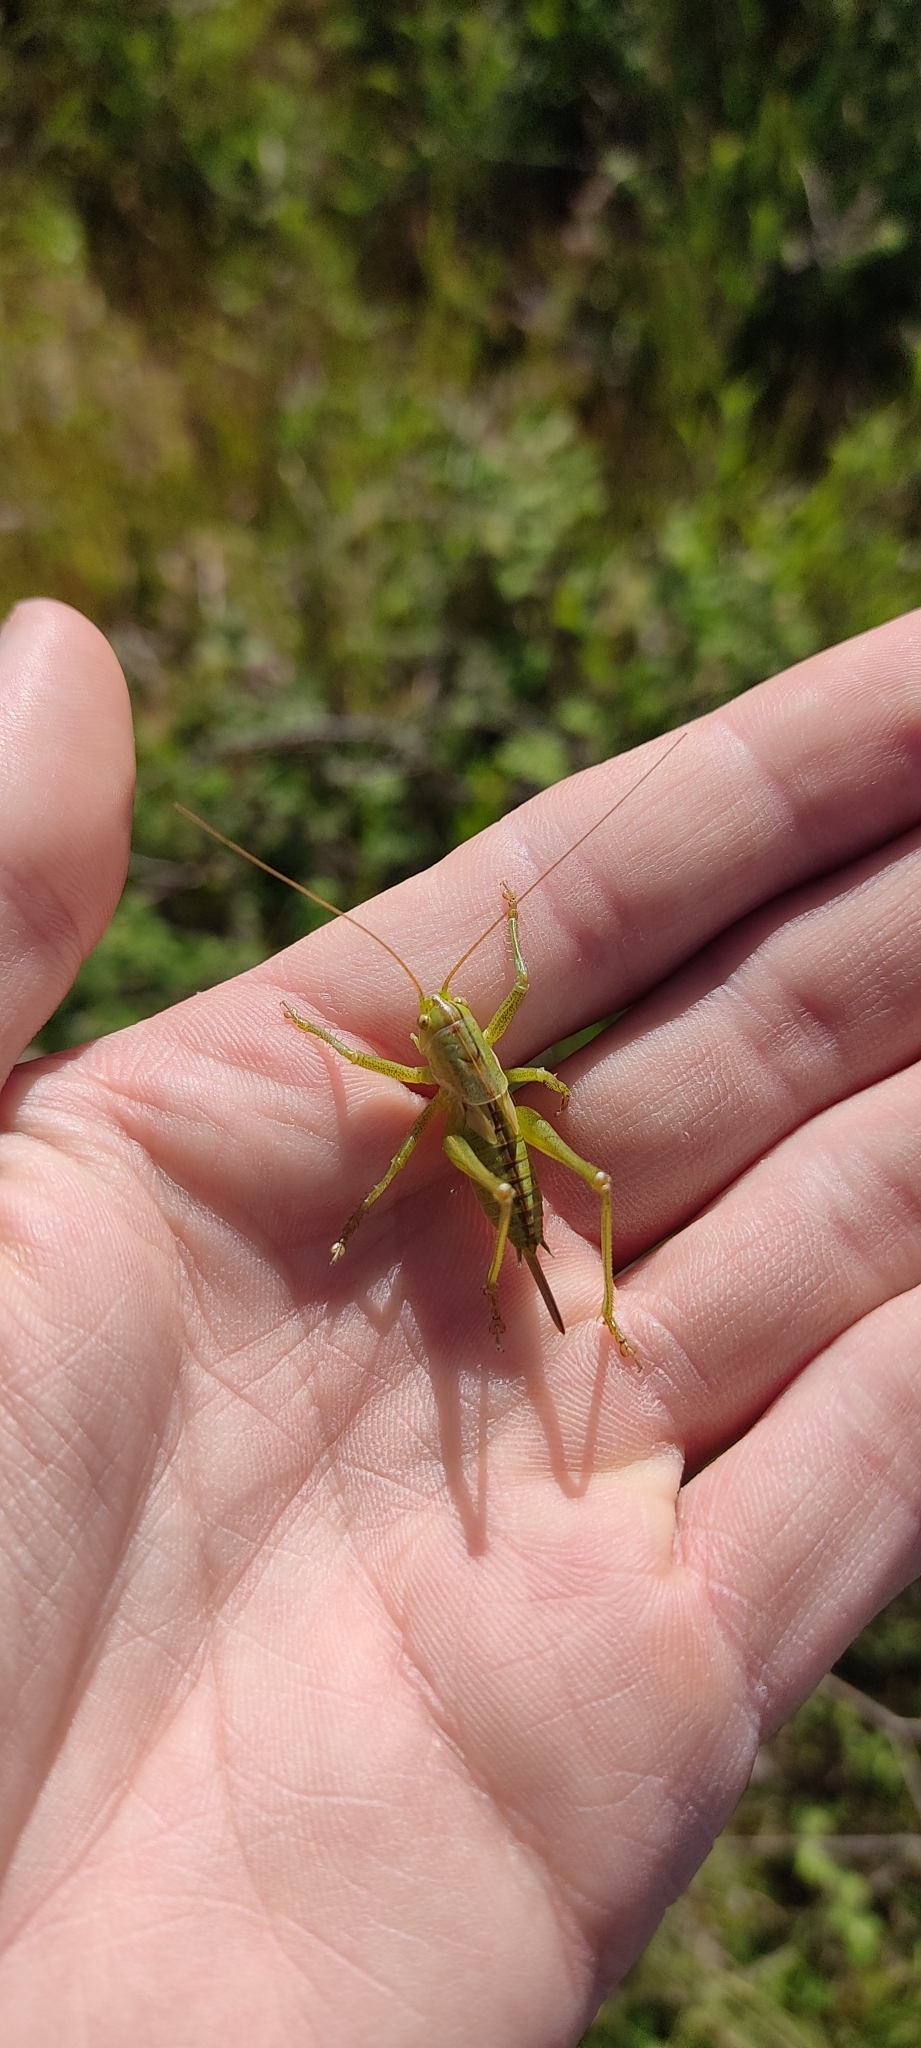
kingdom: Animalia
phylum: Arthropoda
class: Insecta
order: Orthoptera
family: Tettigoniidae
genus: Tettigonia
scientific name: Tettigonia viridissima
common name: Great green bush-cricket
